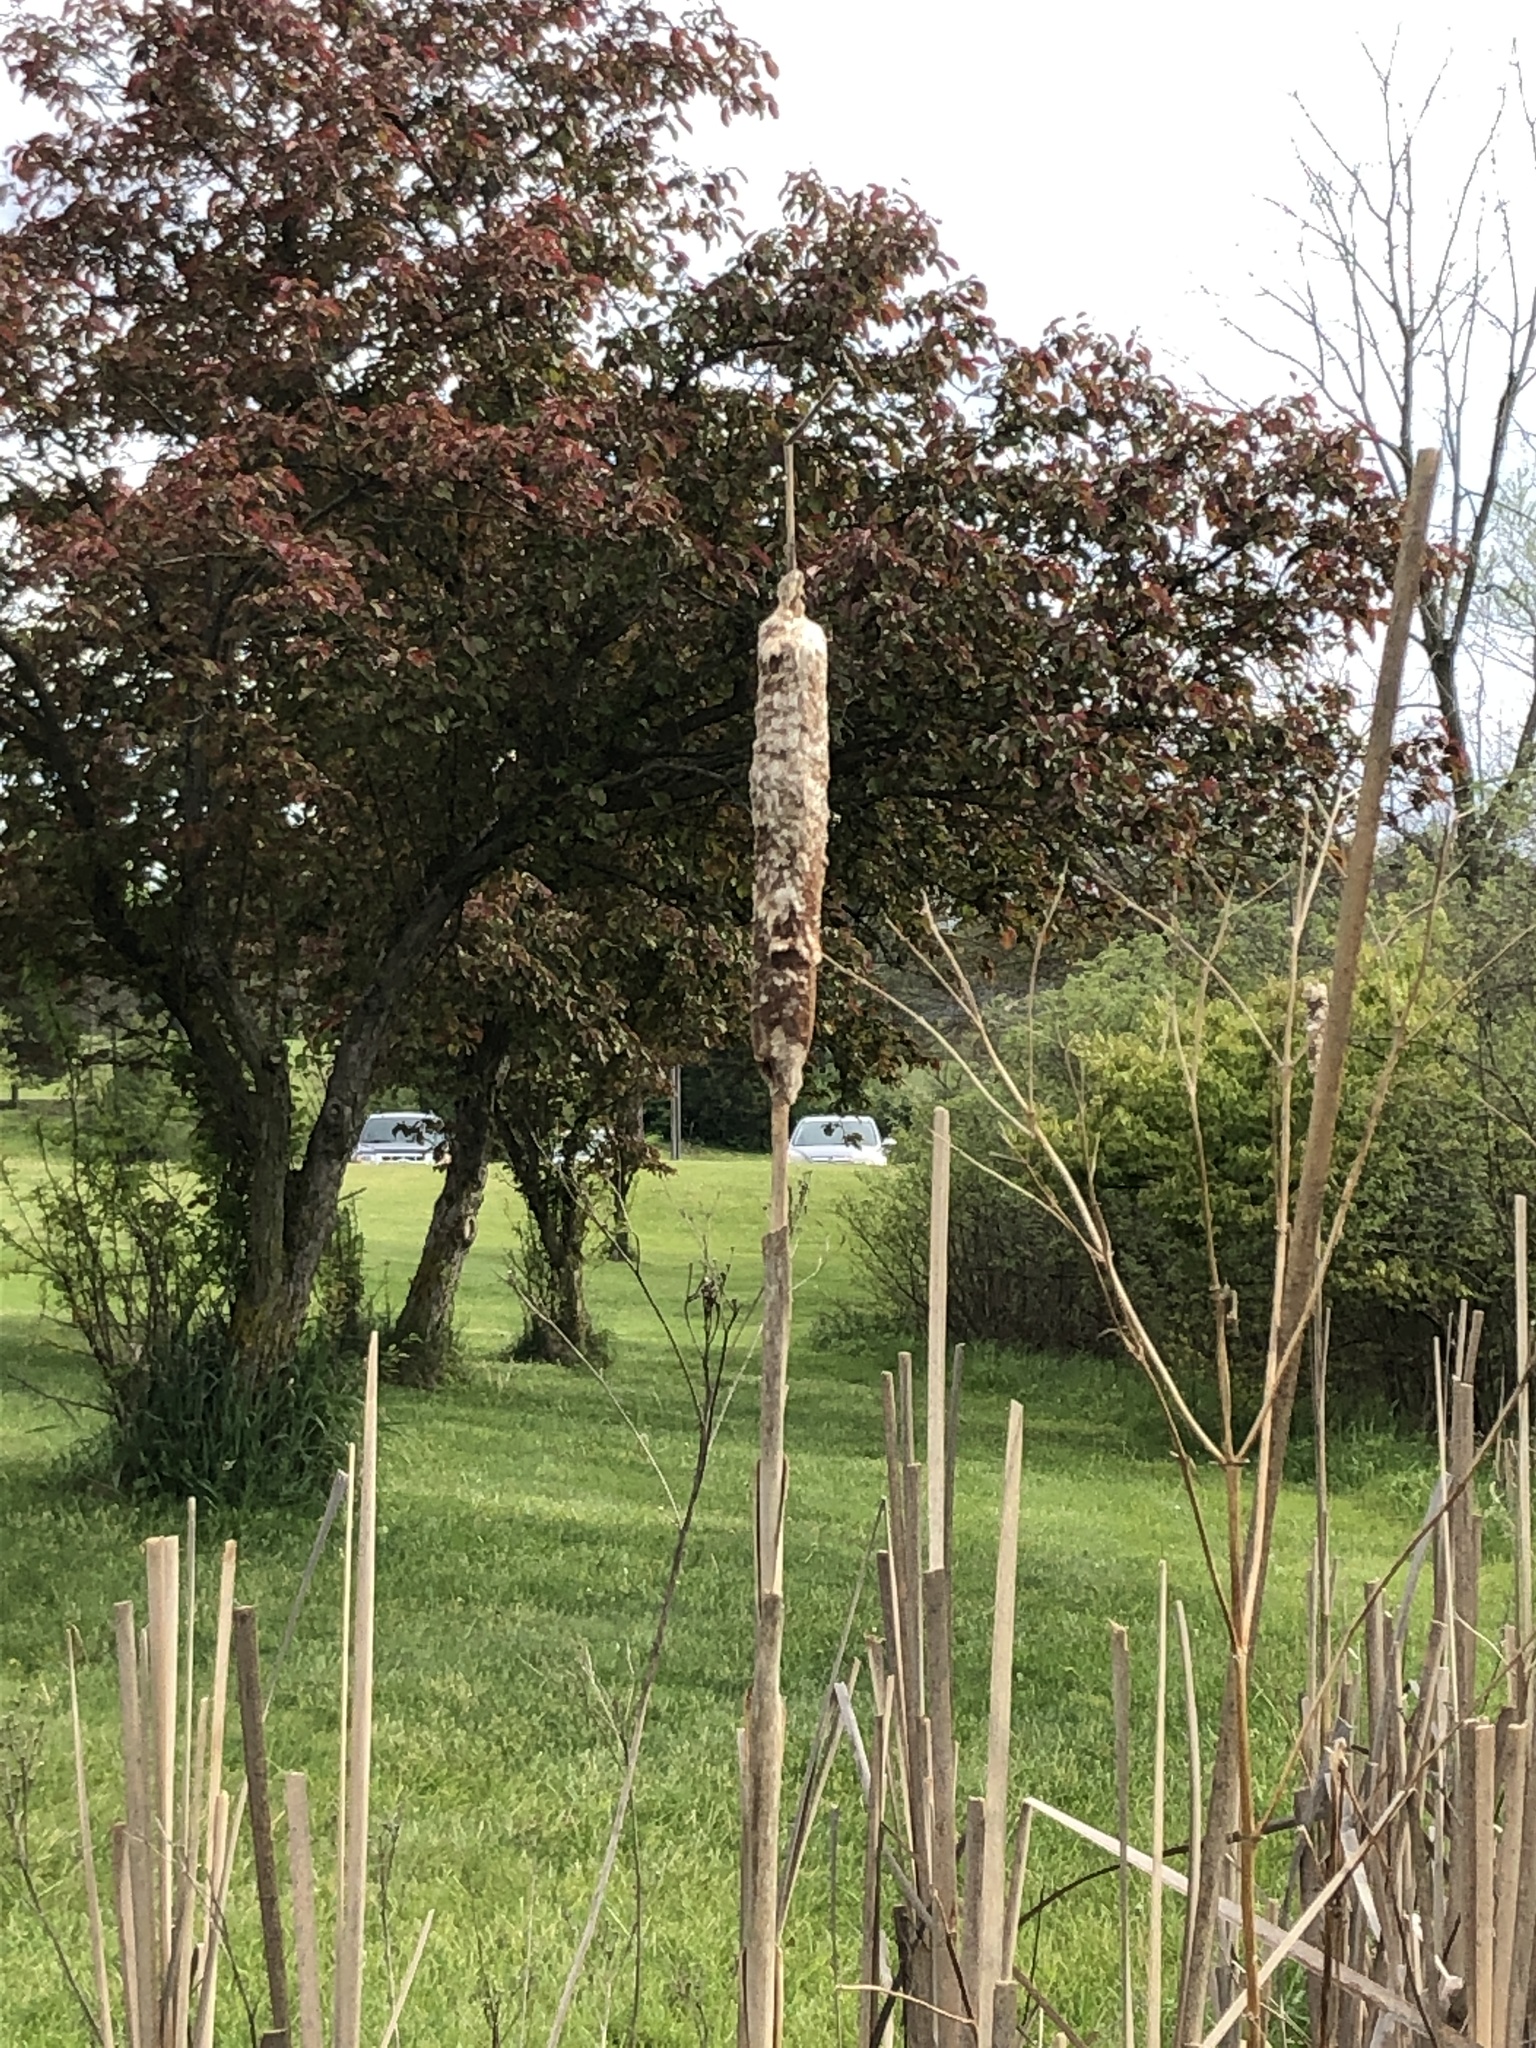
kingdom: Plantae
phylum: Tracheophyta
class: Liliopsida
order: Poales
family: Typhaceae
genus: Typha
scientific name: Typha latifolia
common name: Broadleaf cattail
